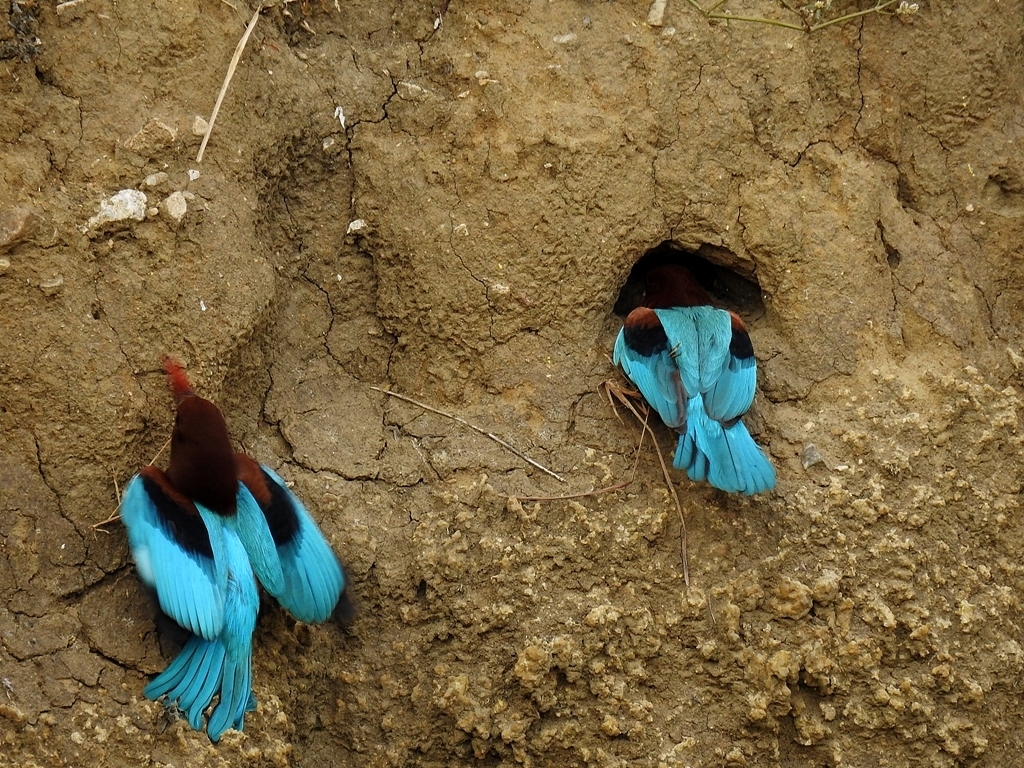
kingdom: Animalia
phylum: Chordata
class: Aves
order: Coraciiformes
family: Alcedinidae
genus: Halcyon
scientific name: Halcyon smyrnensis
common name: White-throated kingfisher
